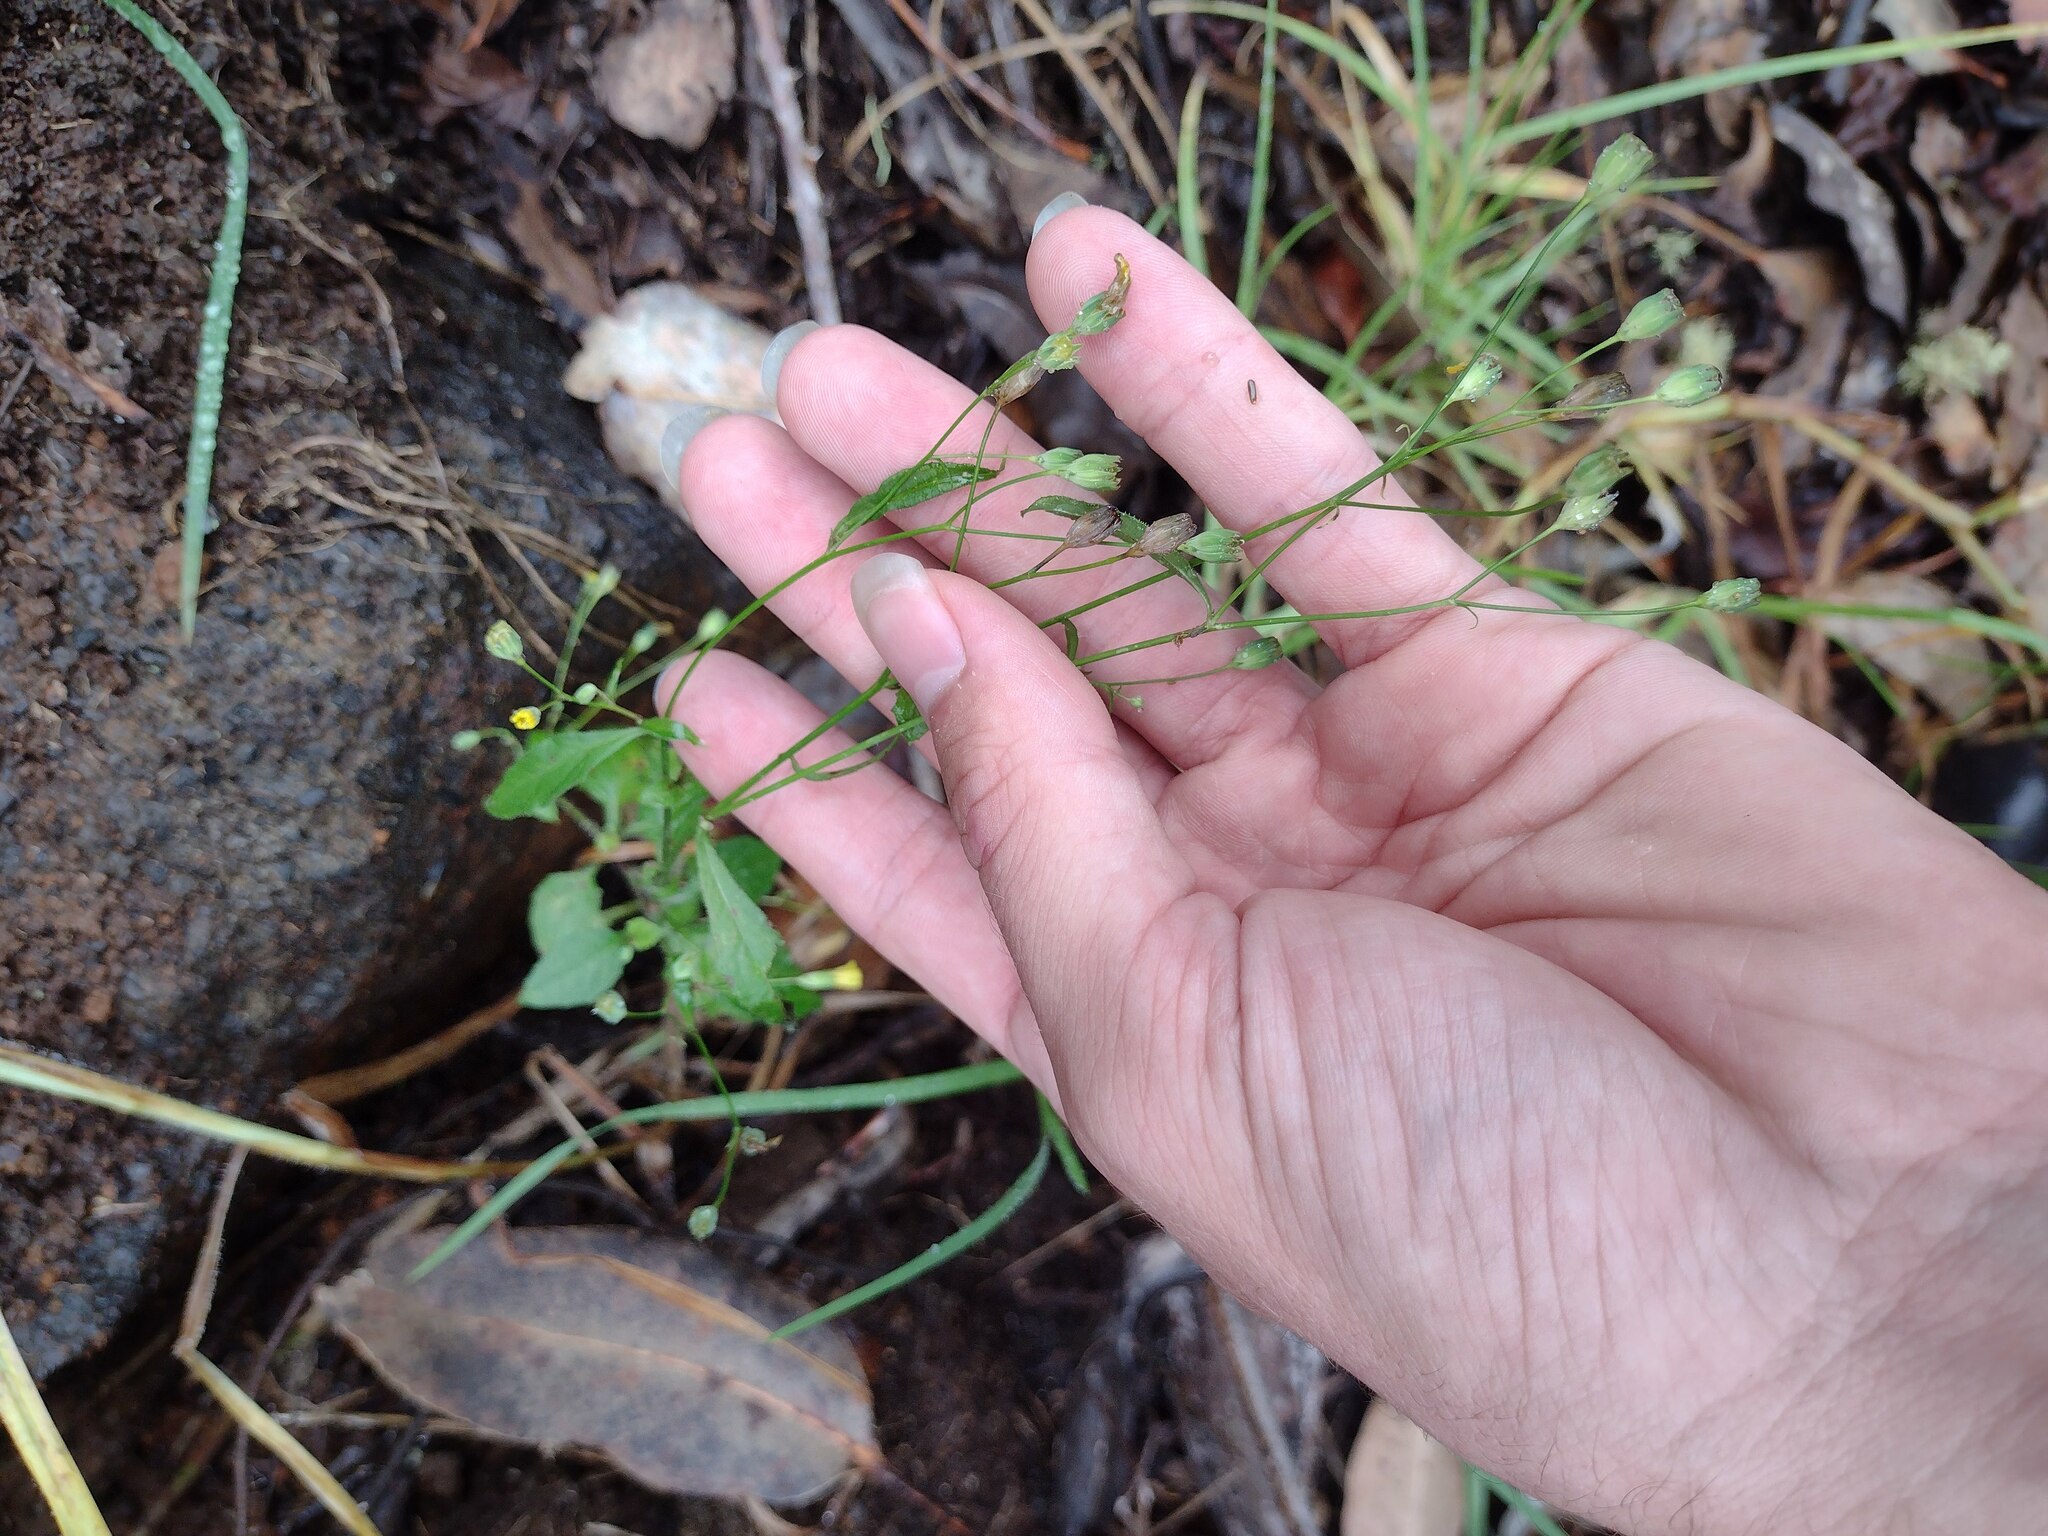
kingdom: Plantae
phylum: Tracheophyta
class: Magnoliopsida
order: Asterales
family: Asteraceae
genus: Lapsana
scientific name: Lapsana communis
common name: Nipplewort
